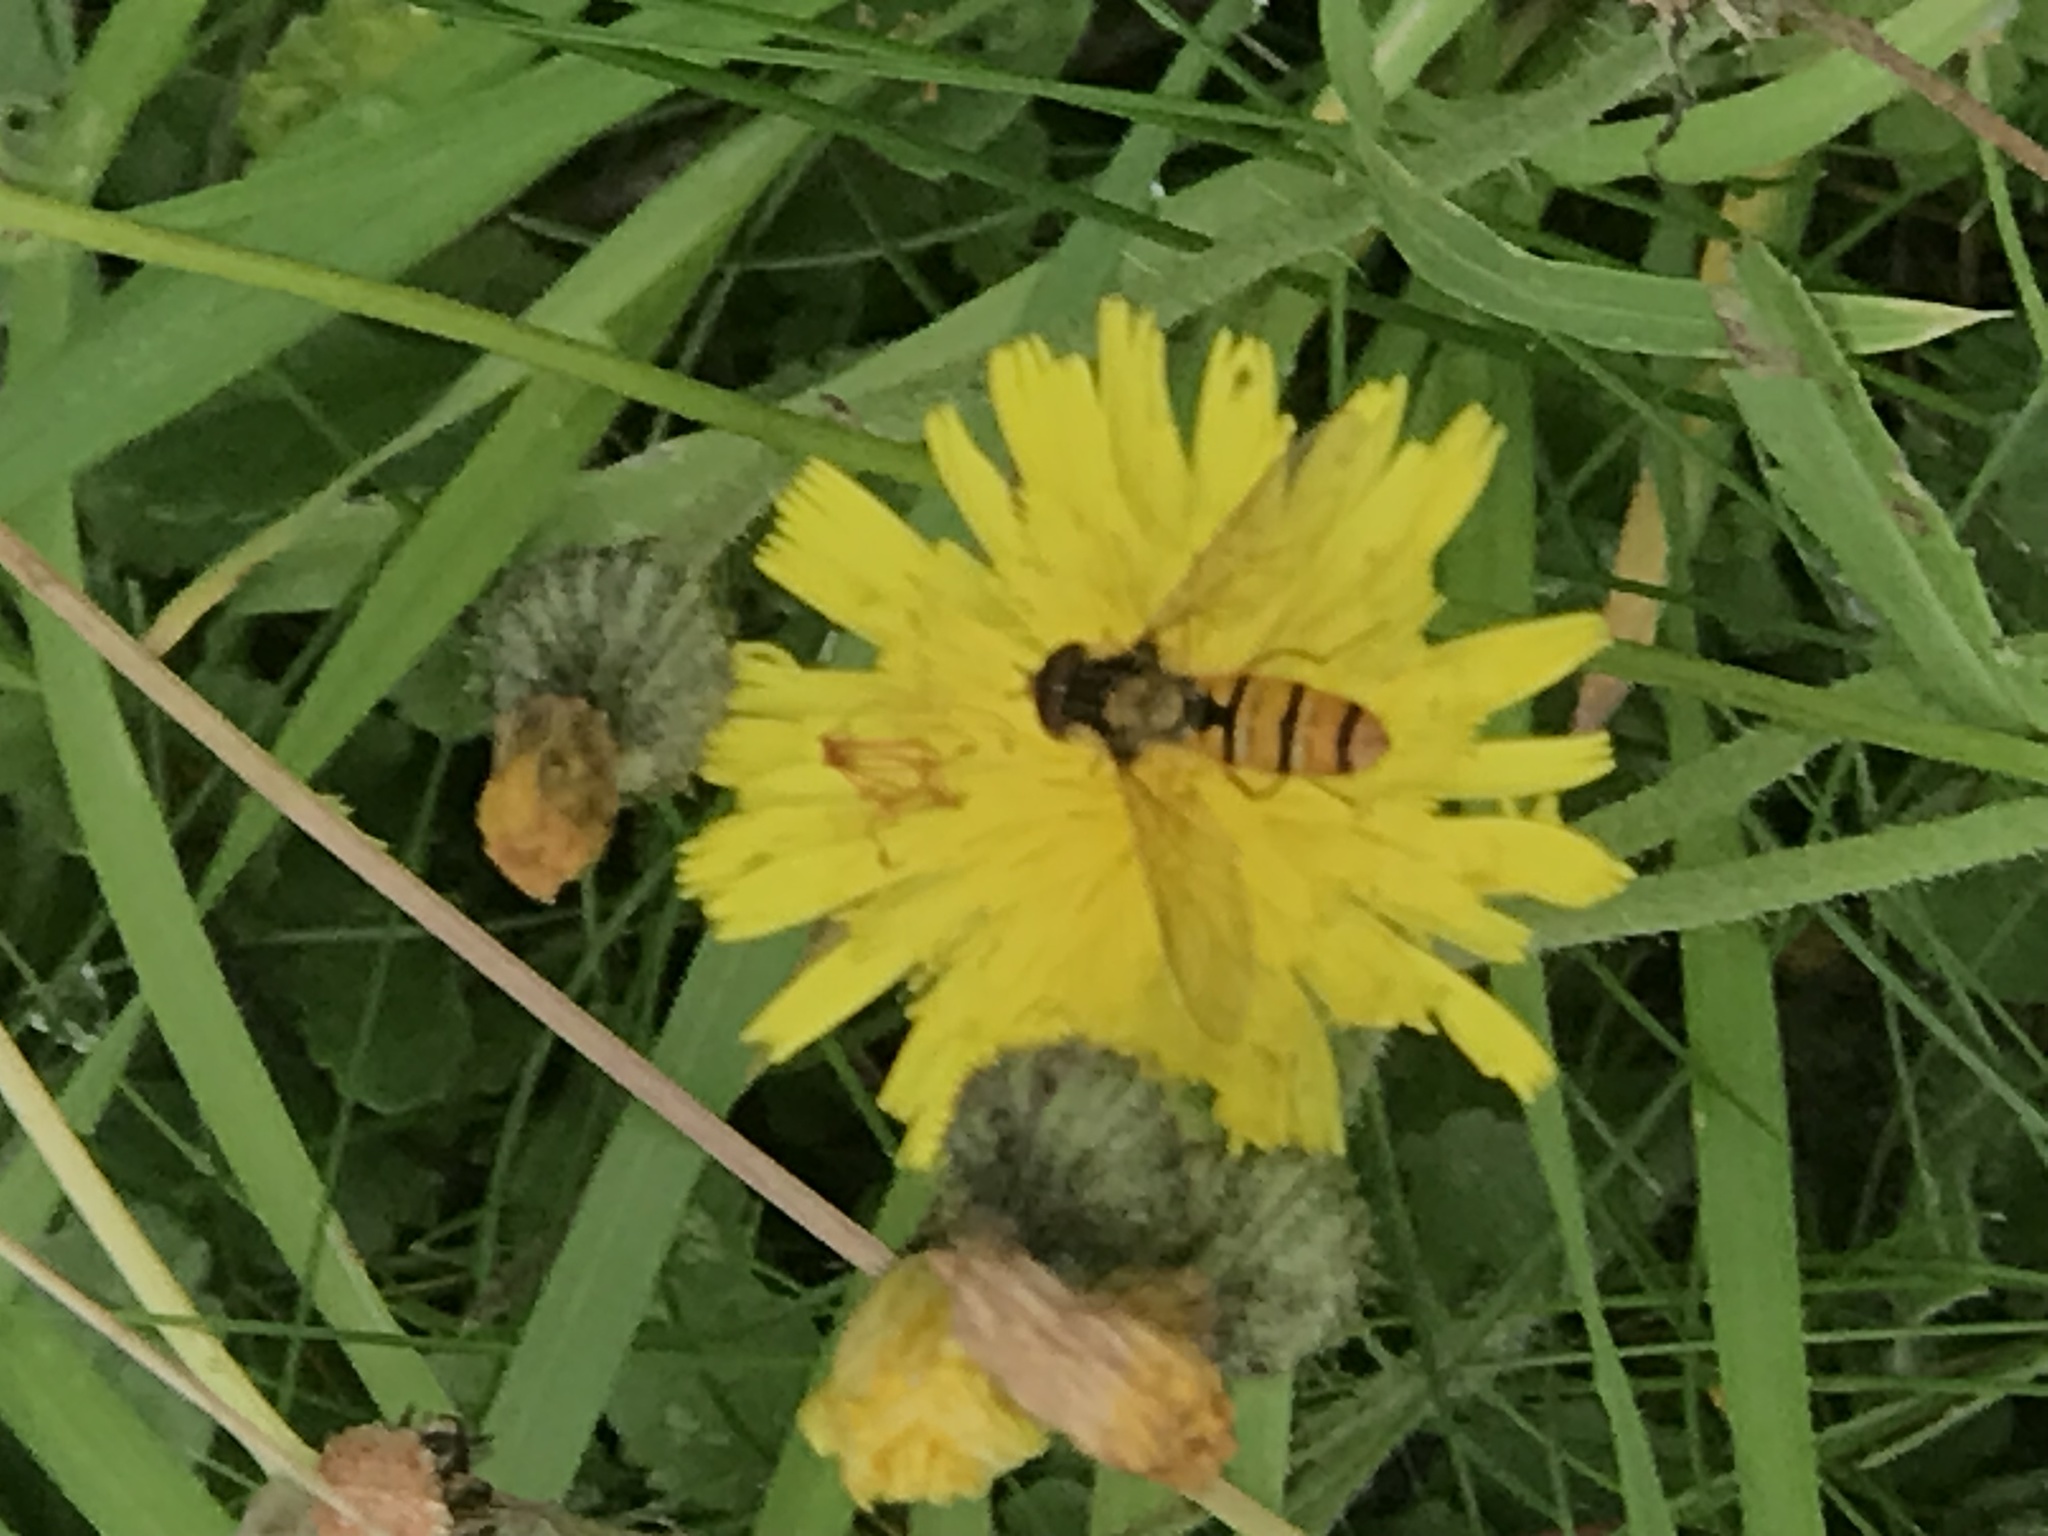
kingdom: Animalia
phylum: Arthropoda
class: Insecta
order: Diptera
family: Syrphidae
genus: Episyrphus
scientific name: Episyrphus balteatus
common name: Marmalade hoverfly
